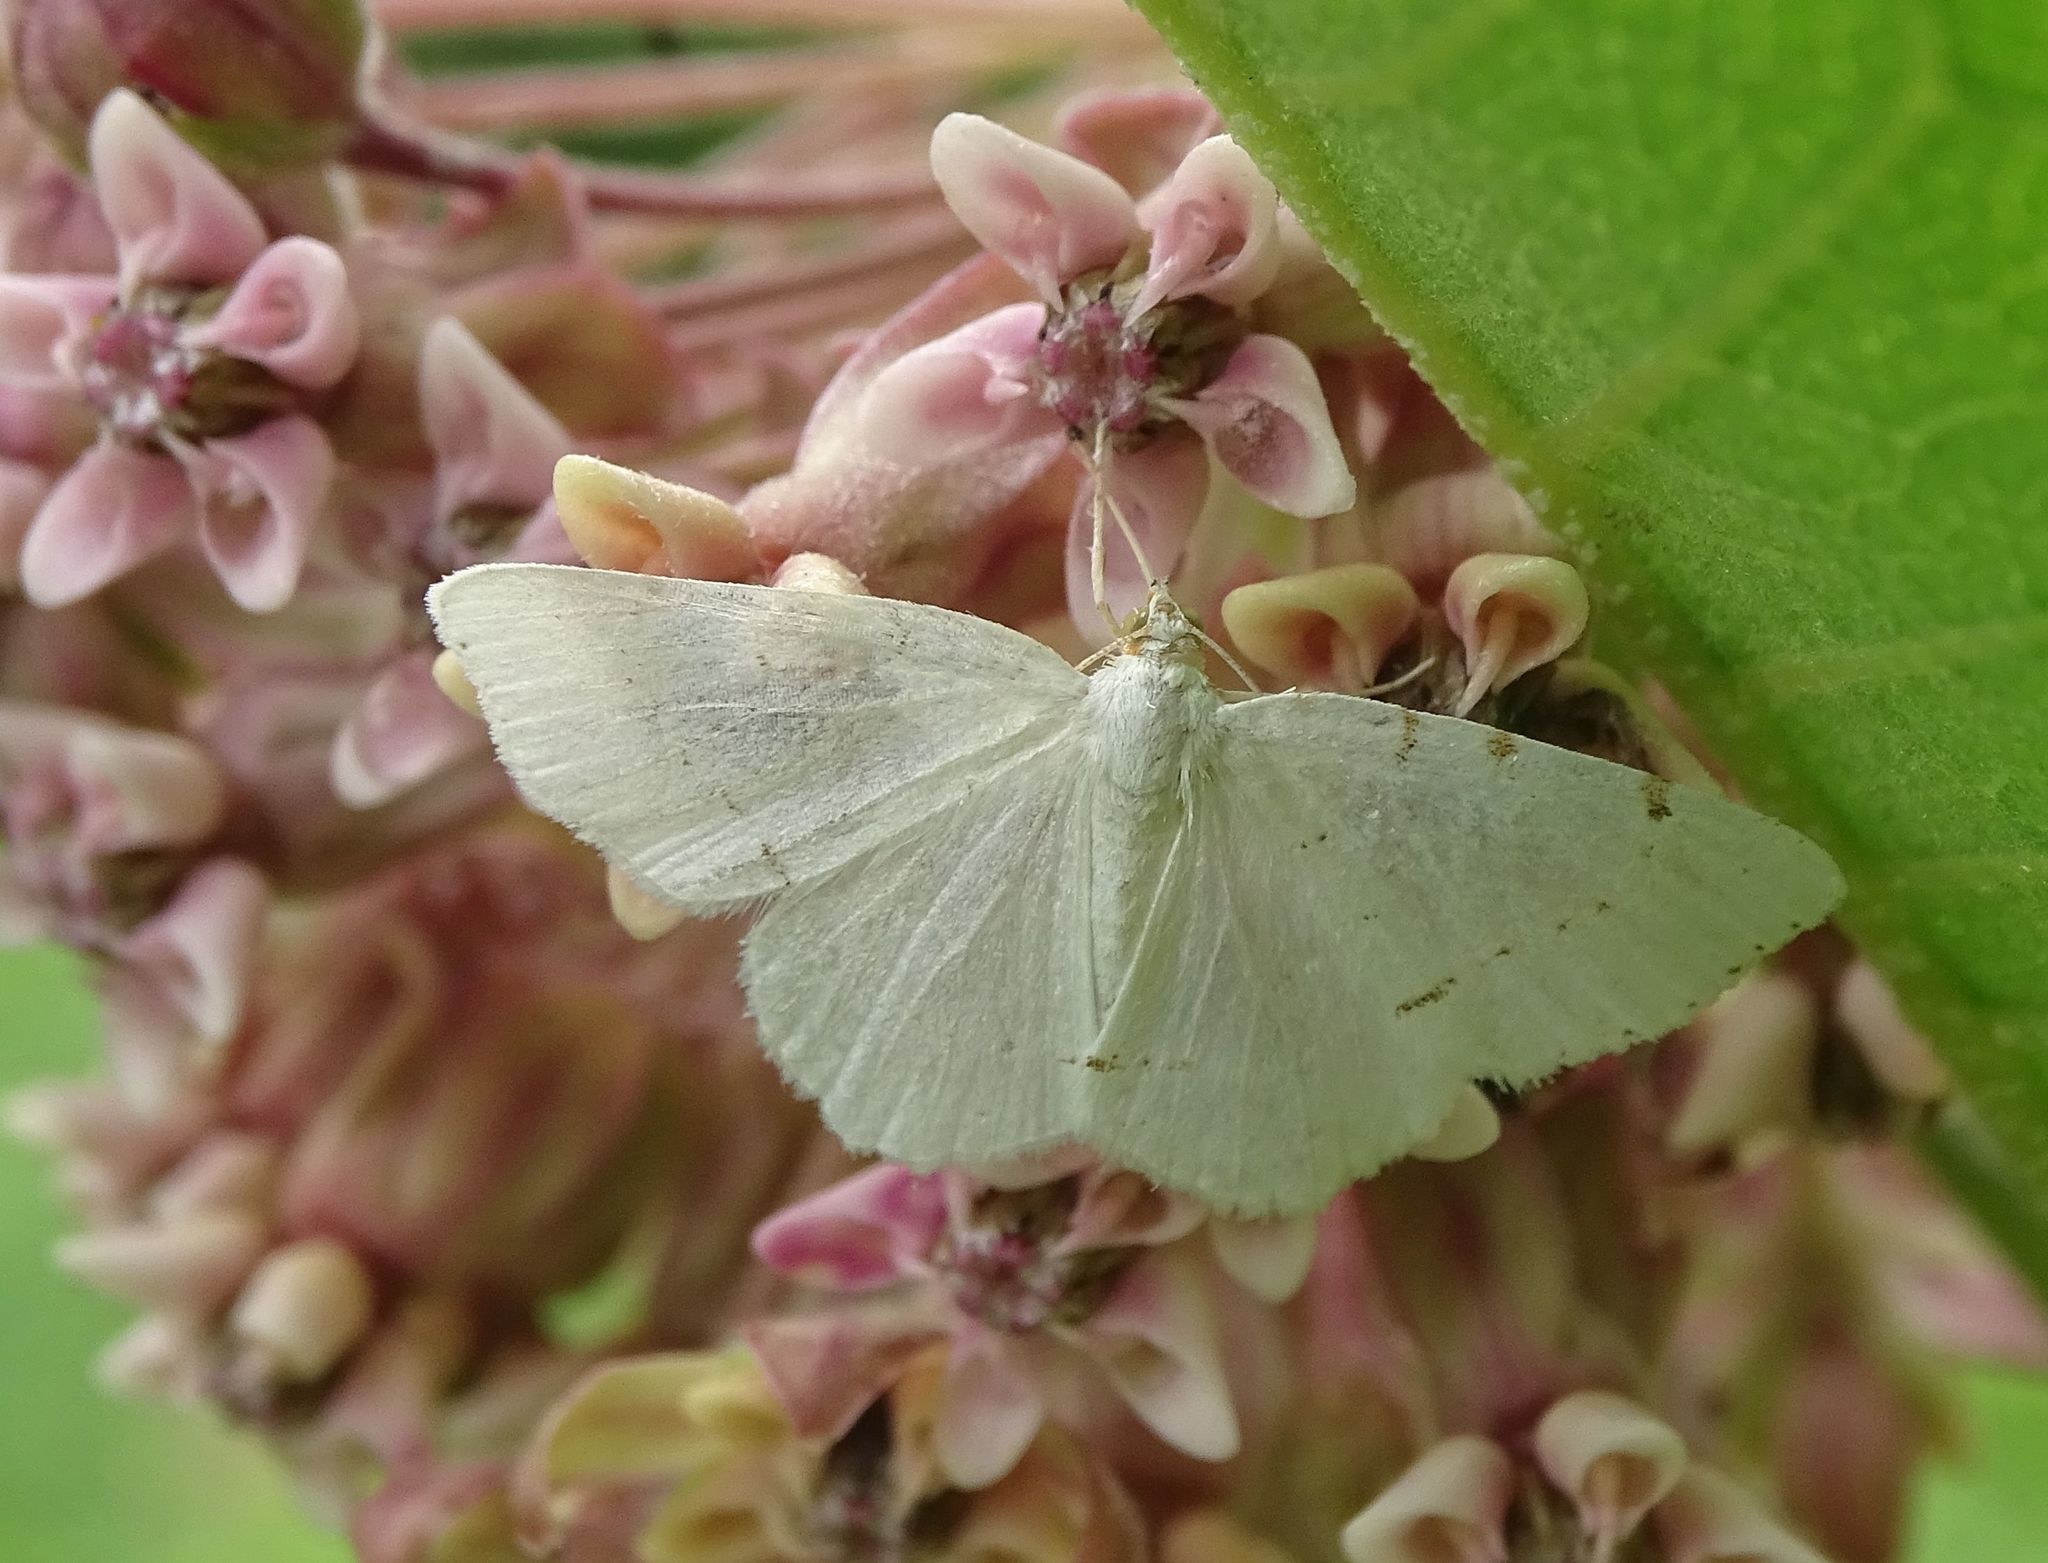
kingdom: Animalia
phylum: Arthropoda
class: Insecta
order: Lepidoptera
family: Geometridae
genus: Macaria
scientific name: Macaria pustularia
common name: Lesser maple spanworm moth
